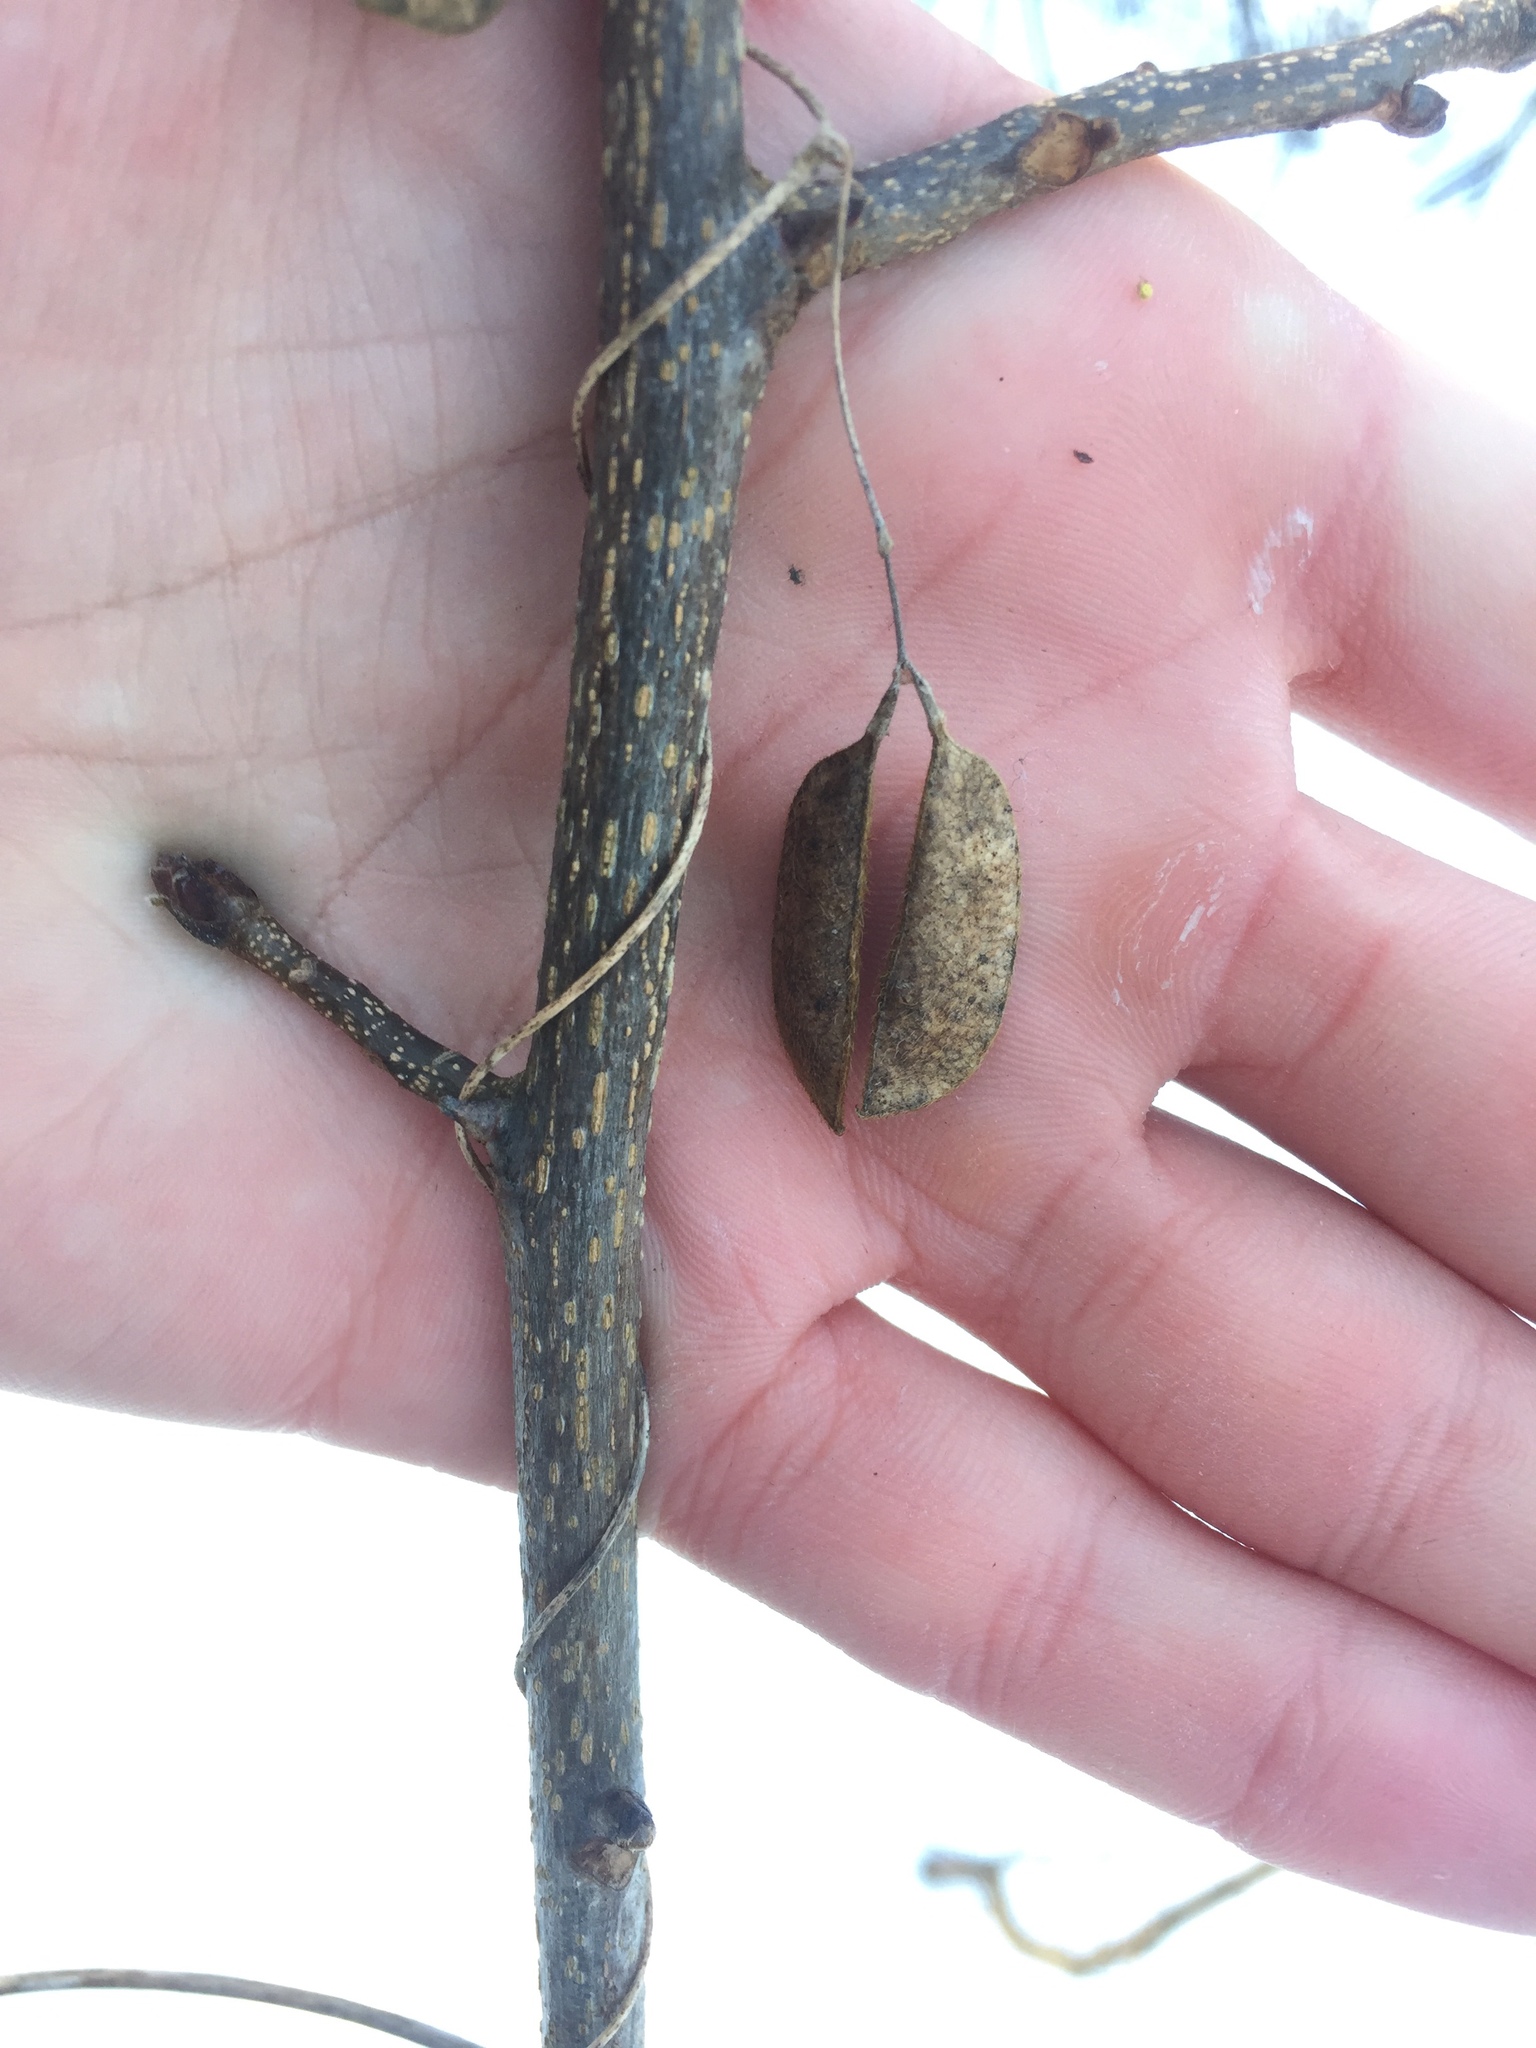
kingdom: Plantae
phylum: Tracheophyta
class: Magnoliopsida
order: Fabales
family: Fabaceae
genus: Amphicarpaea
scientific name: Amphicarpaea bracteata
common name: American hog peanut
